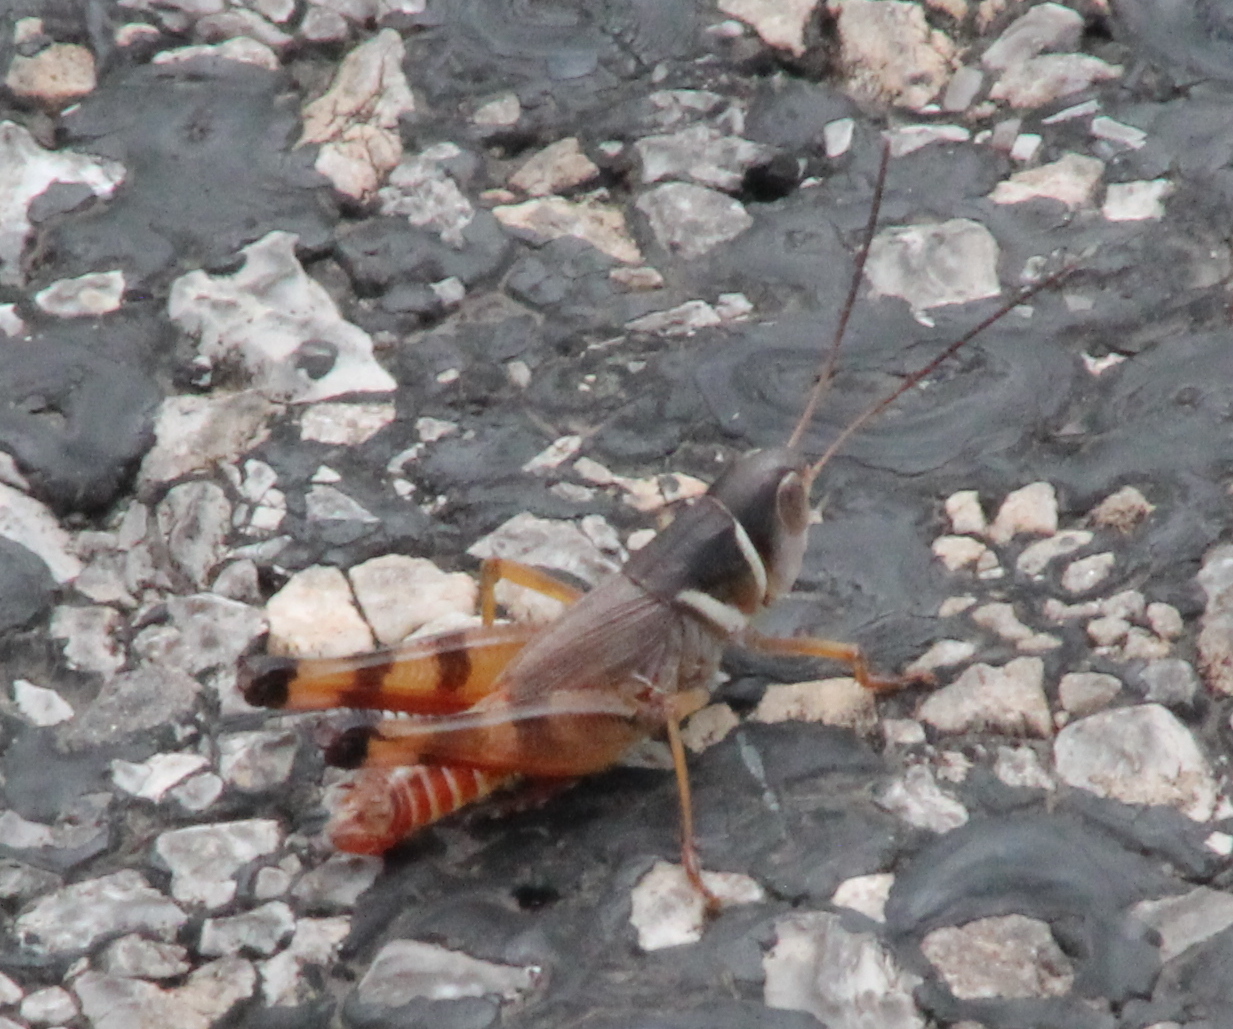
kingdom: Animalia
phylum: Arthropoda
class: Insecta
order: Orthoptera
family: Acrididae
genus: Boopedon
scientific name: Boopedon auriventris
